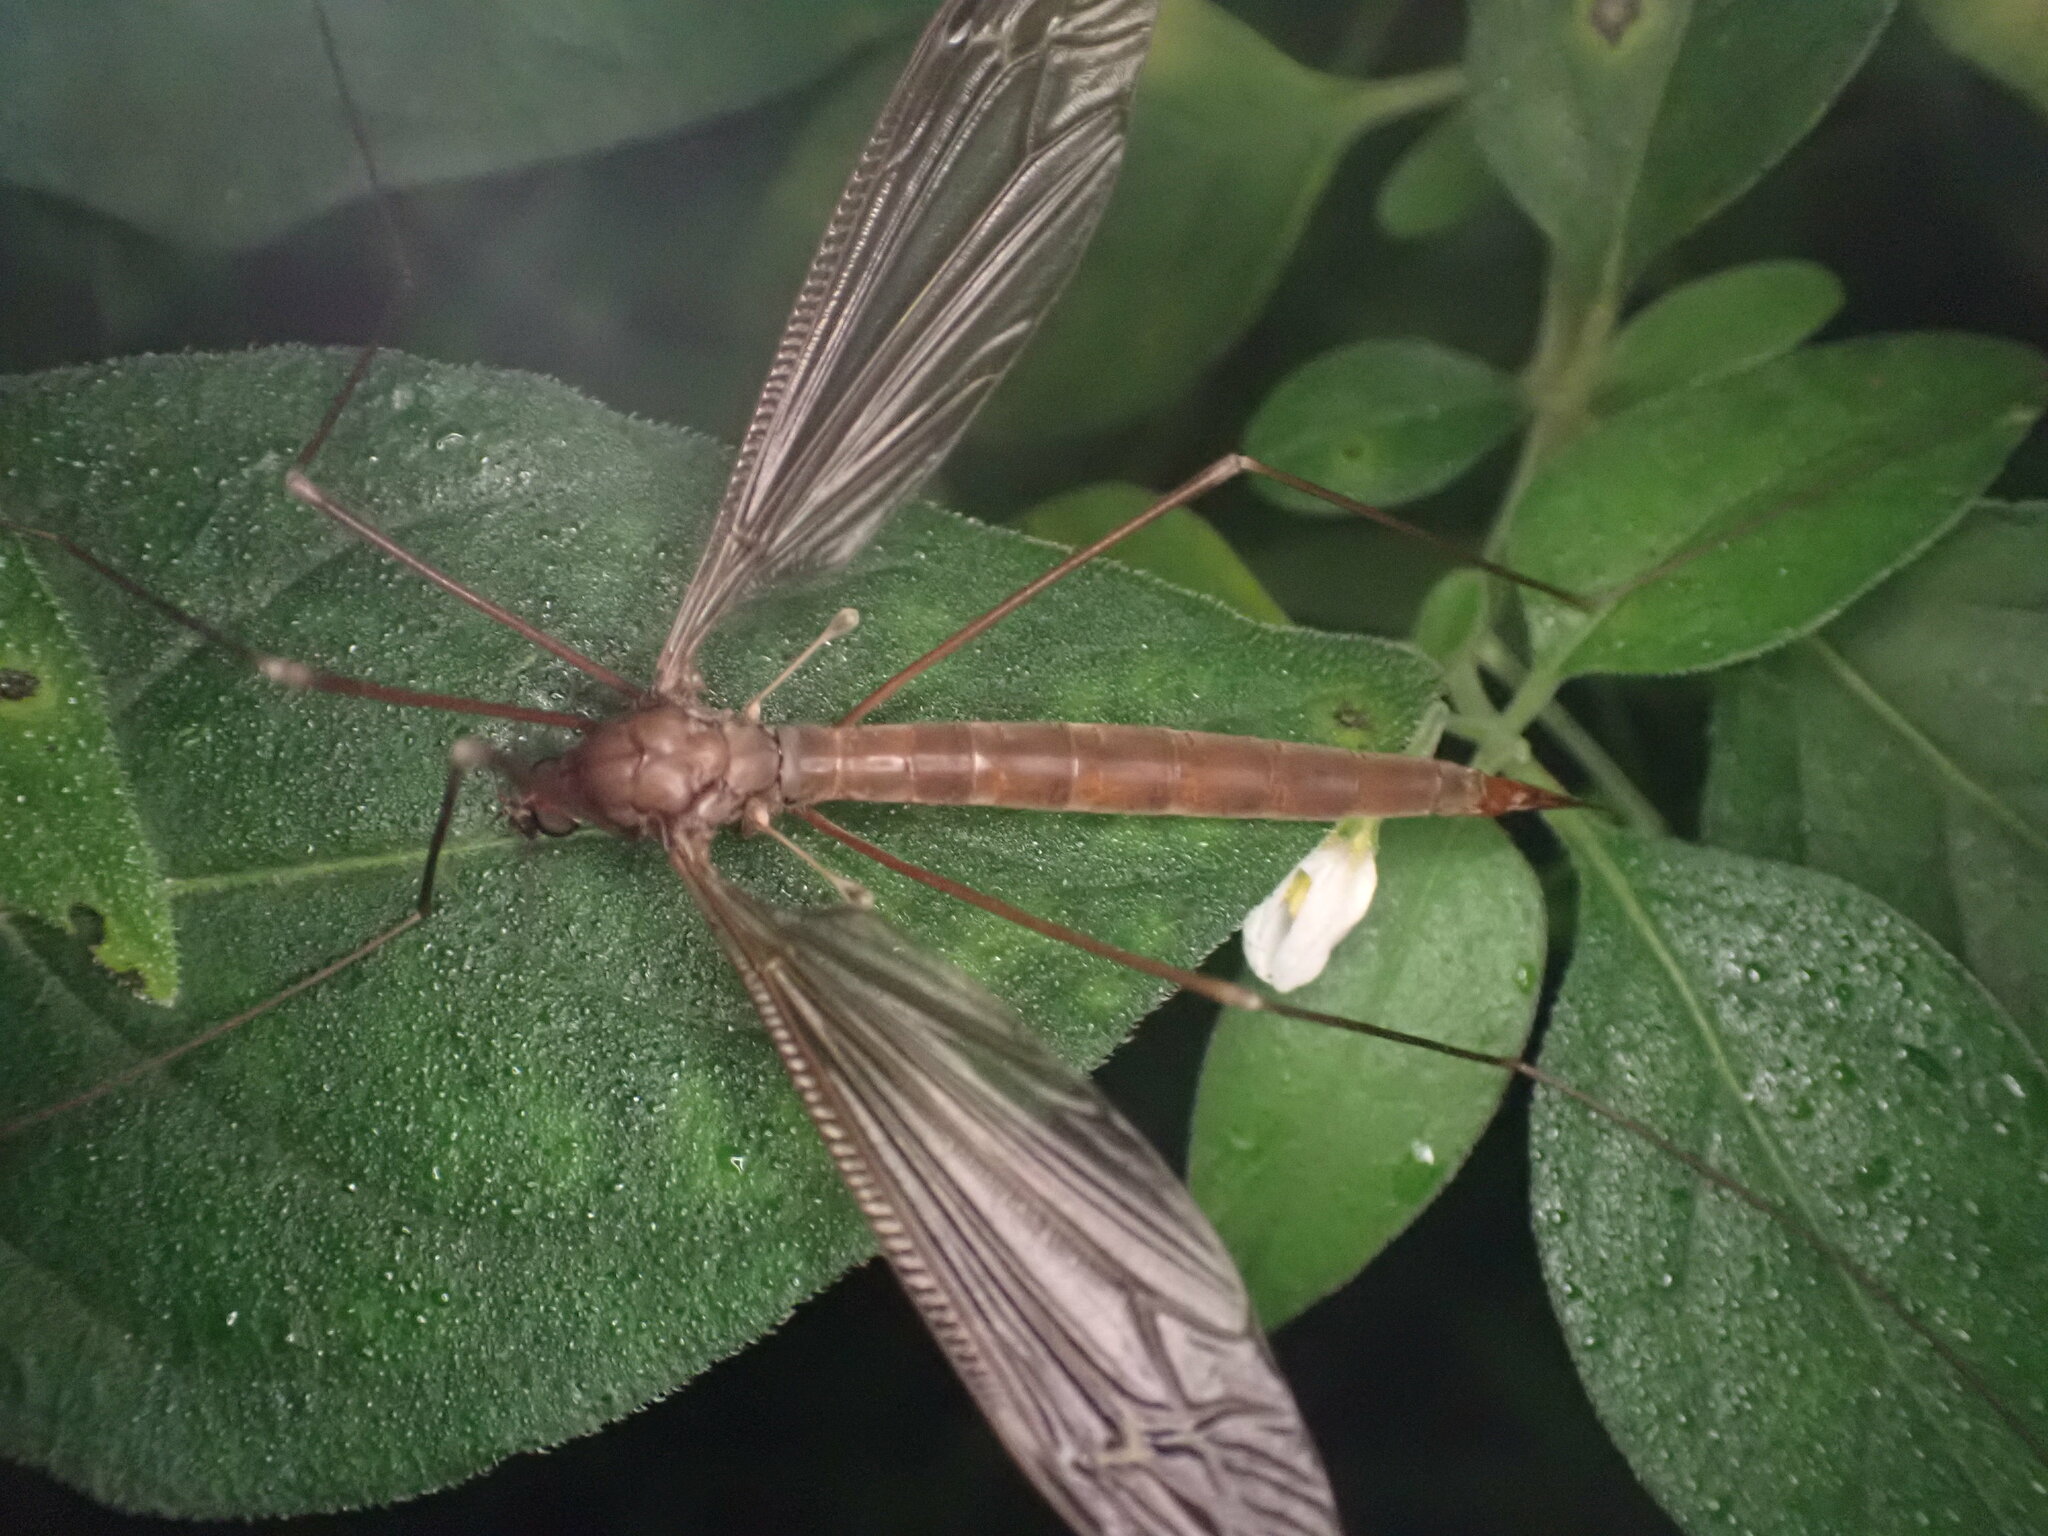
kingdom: Animalia
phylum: Arthropoda
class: Insecta
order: Diptera
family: Tipulidae
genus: Austrotipula
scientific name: Austrotipula hudsoni
